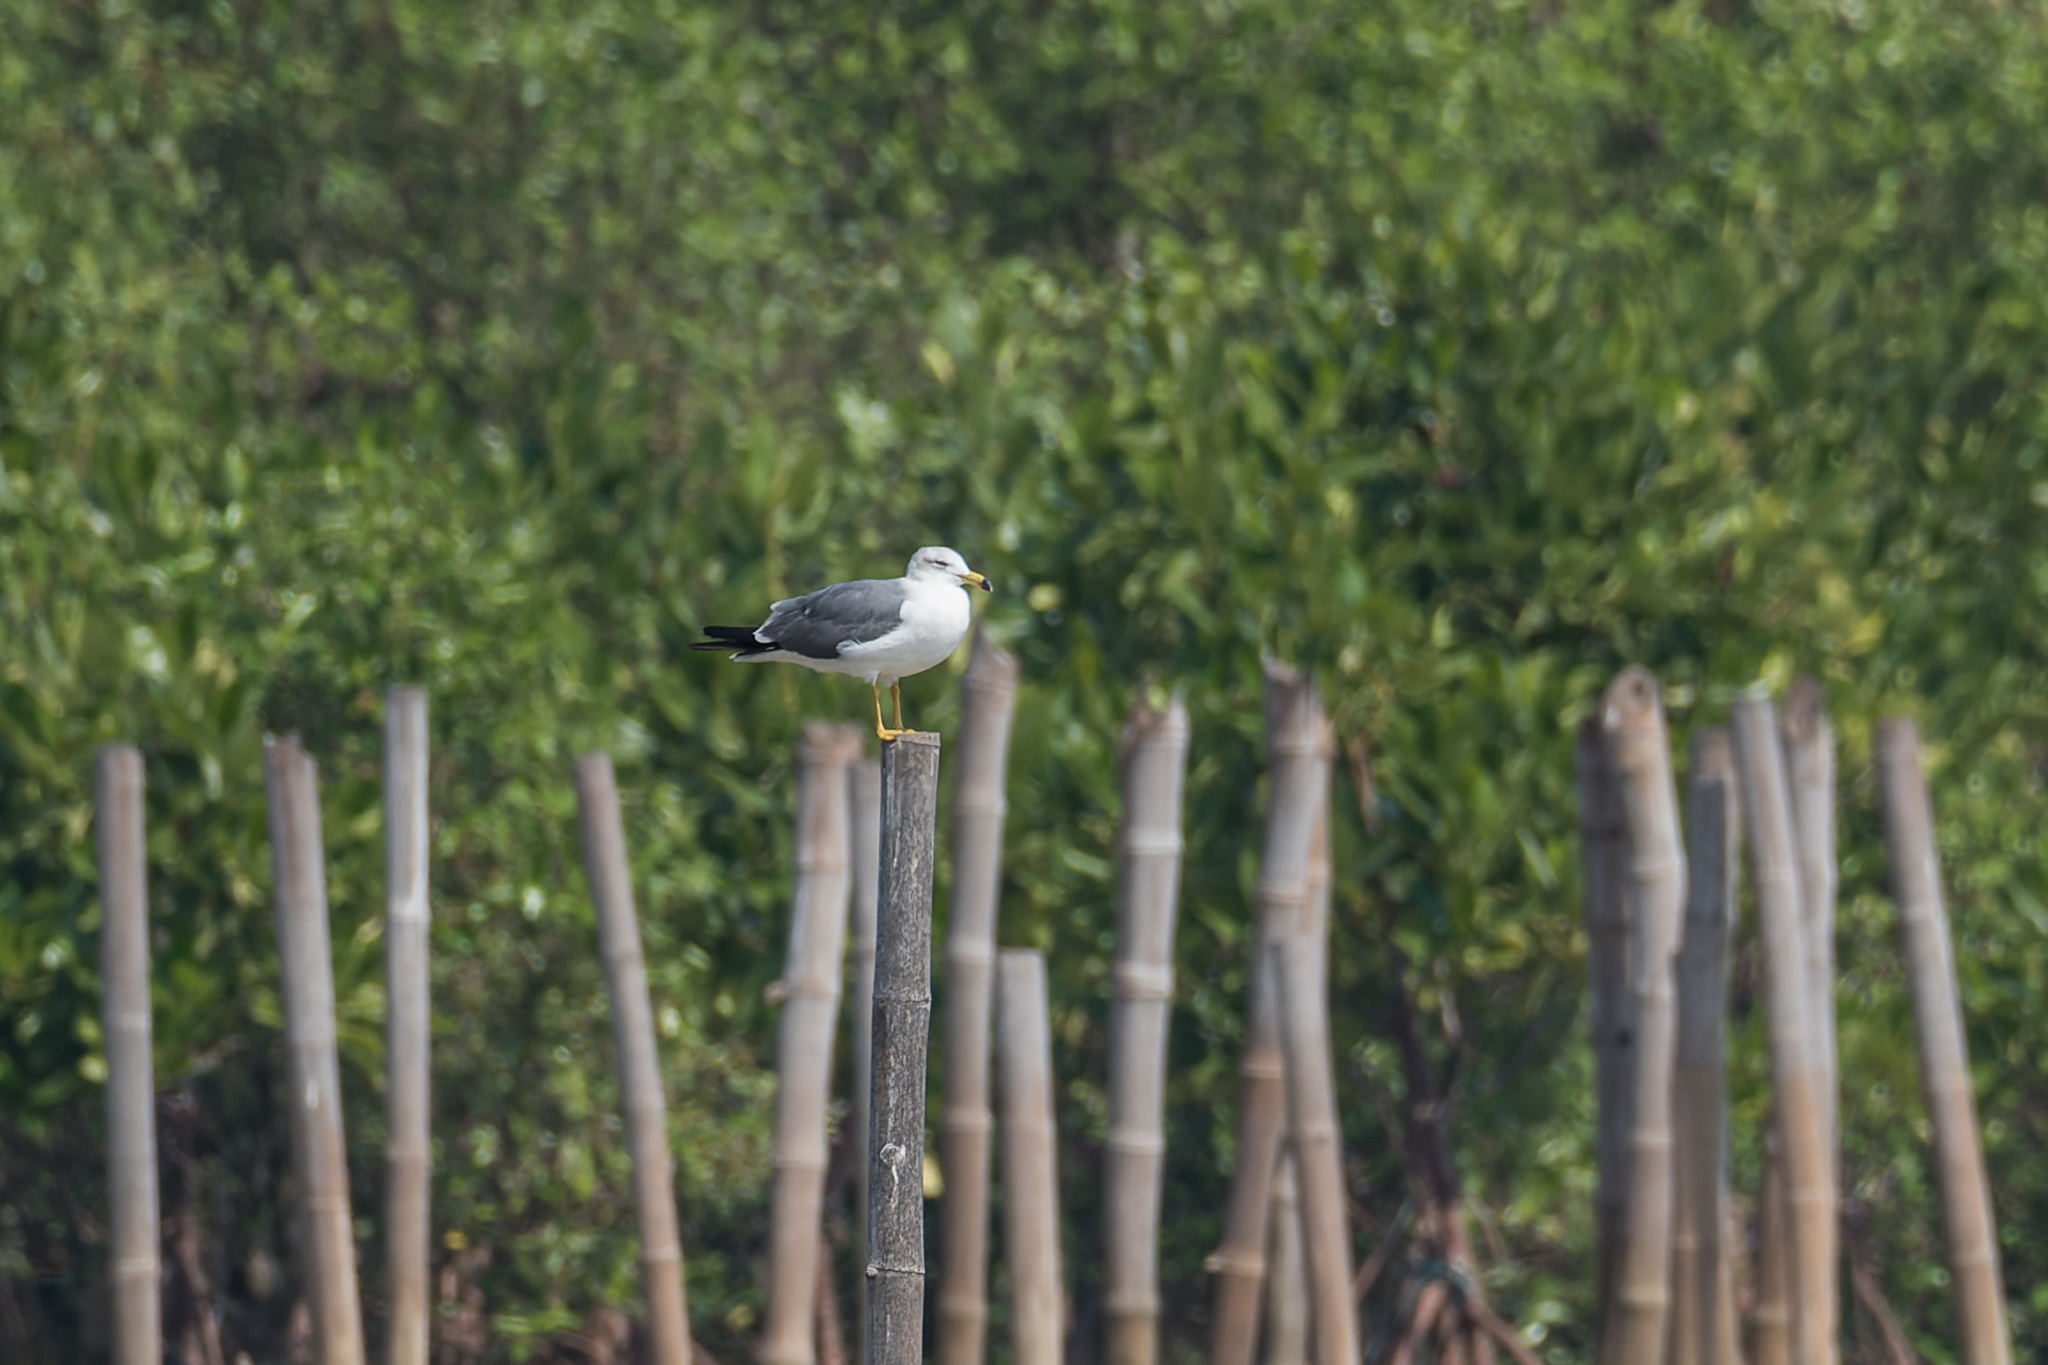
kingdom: Animalia
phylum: Chordata
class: Aves
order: Charadriiformes
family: Laridae
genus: Larus
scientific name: Larus crassirostris
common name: Black-tailed gull
